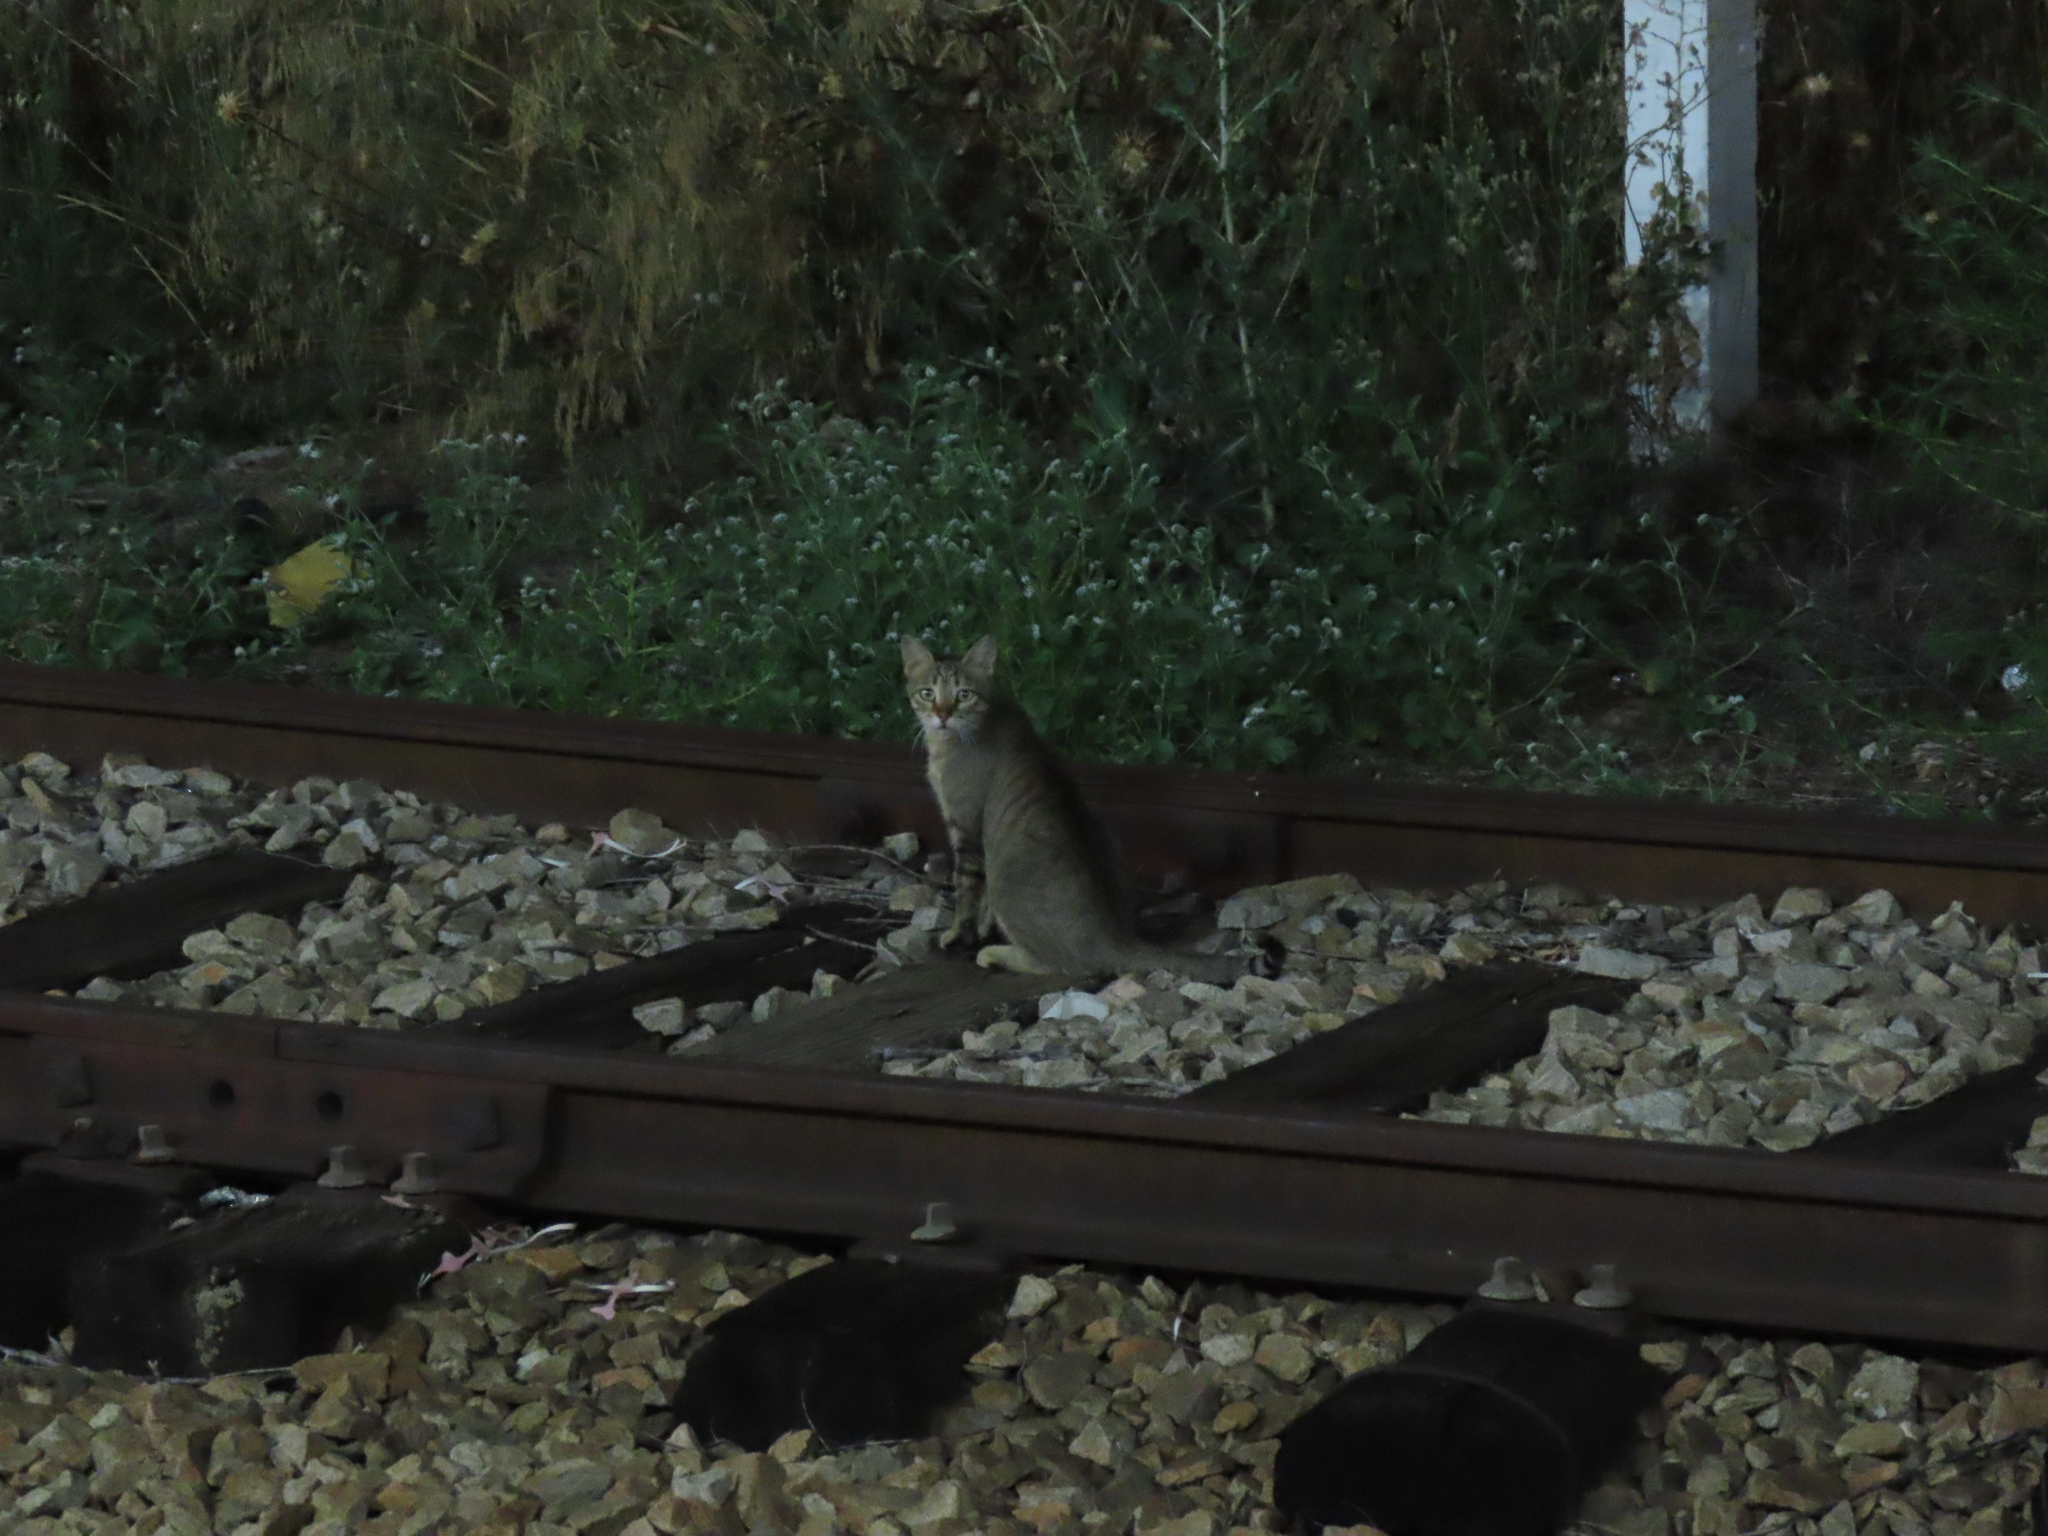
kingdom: Animalia
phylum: Chordata
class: Mammalia
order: Carnivora
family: Felidae
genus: Felis
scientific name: Felis catus
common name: Domestic cat
